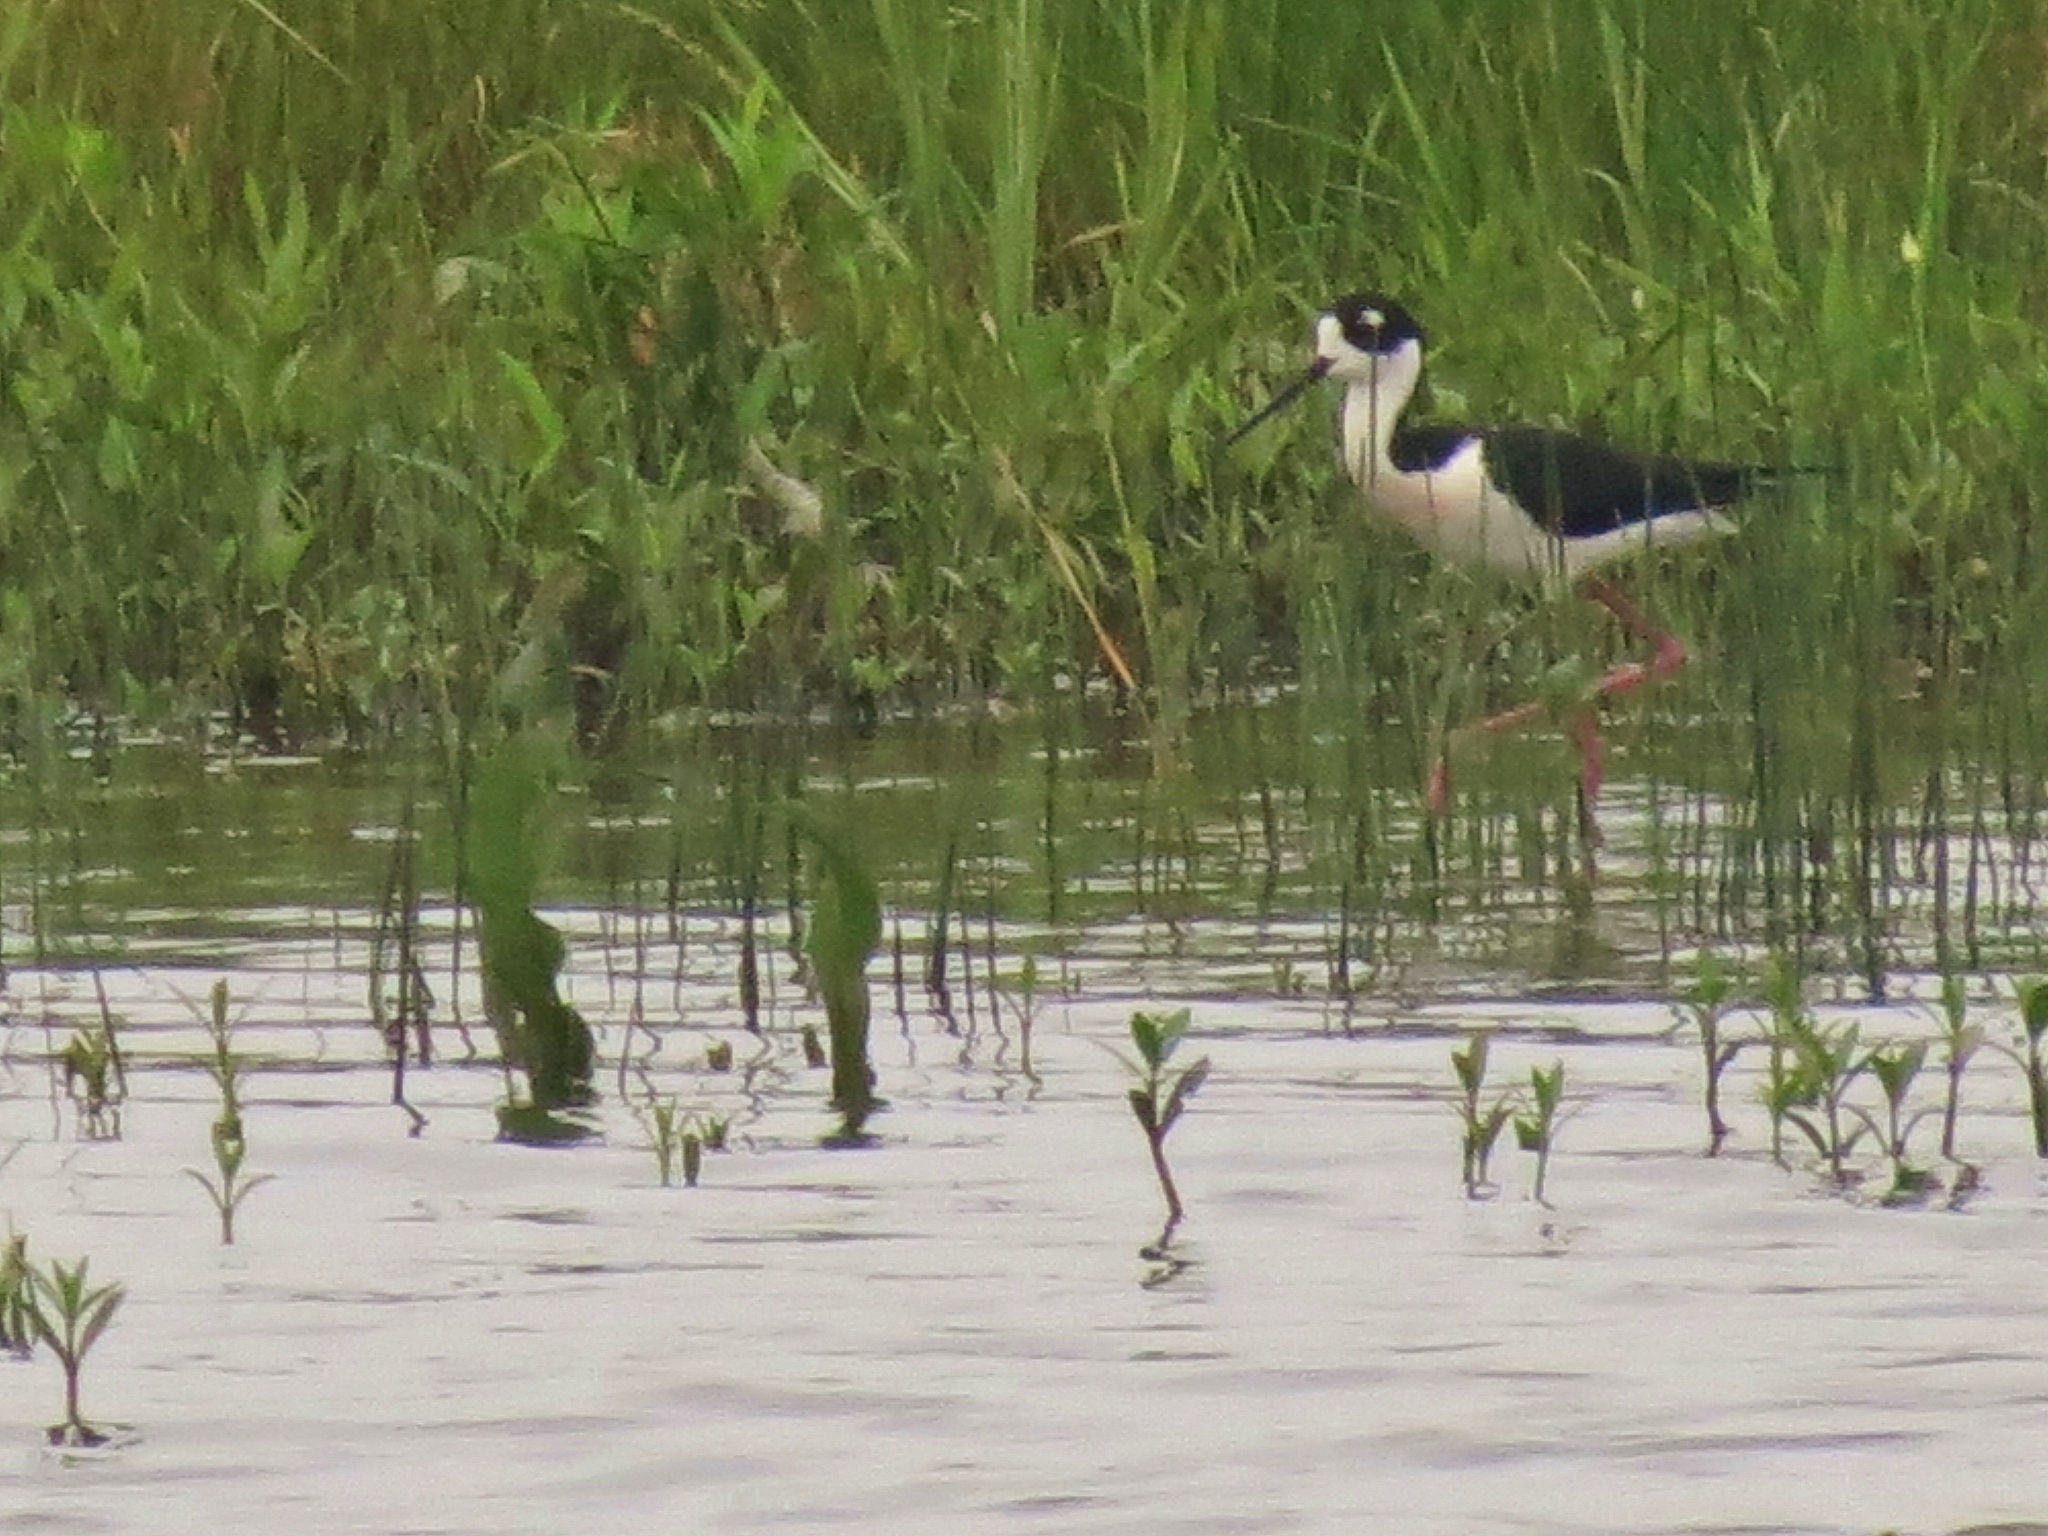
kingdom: Animalia
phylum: Chordata
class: Aves
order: Charadriiformes
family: Recurvirostridae
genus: Himantopus
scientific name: Himantopus mexicanus
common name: Black-necked stilt
